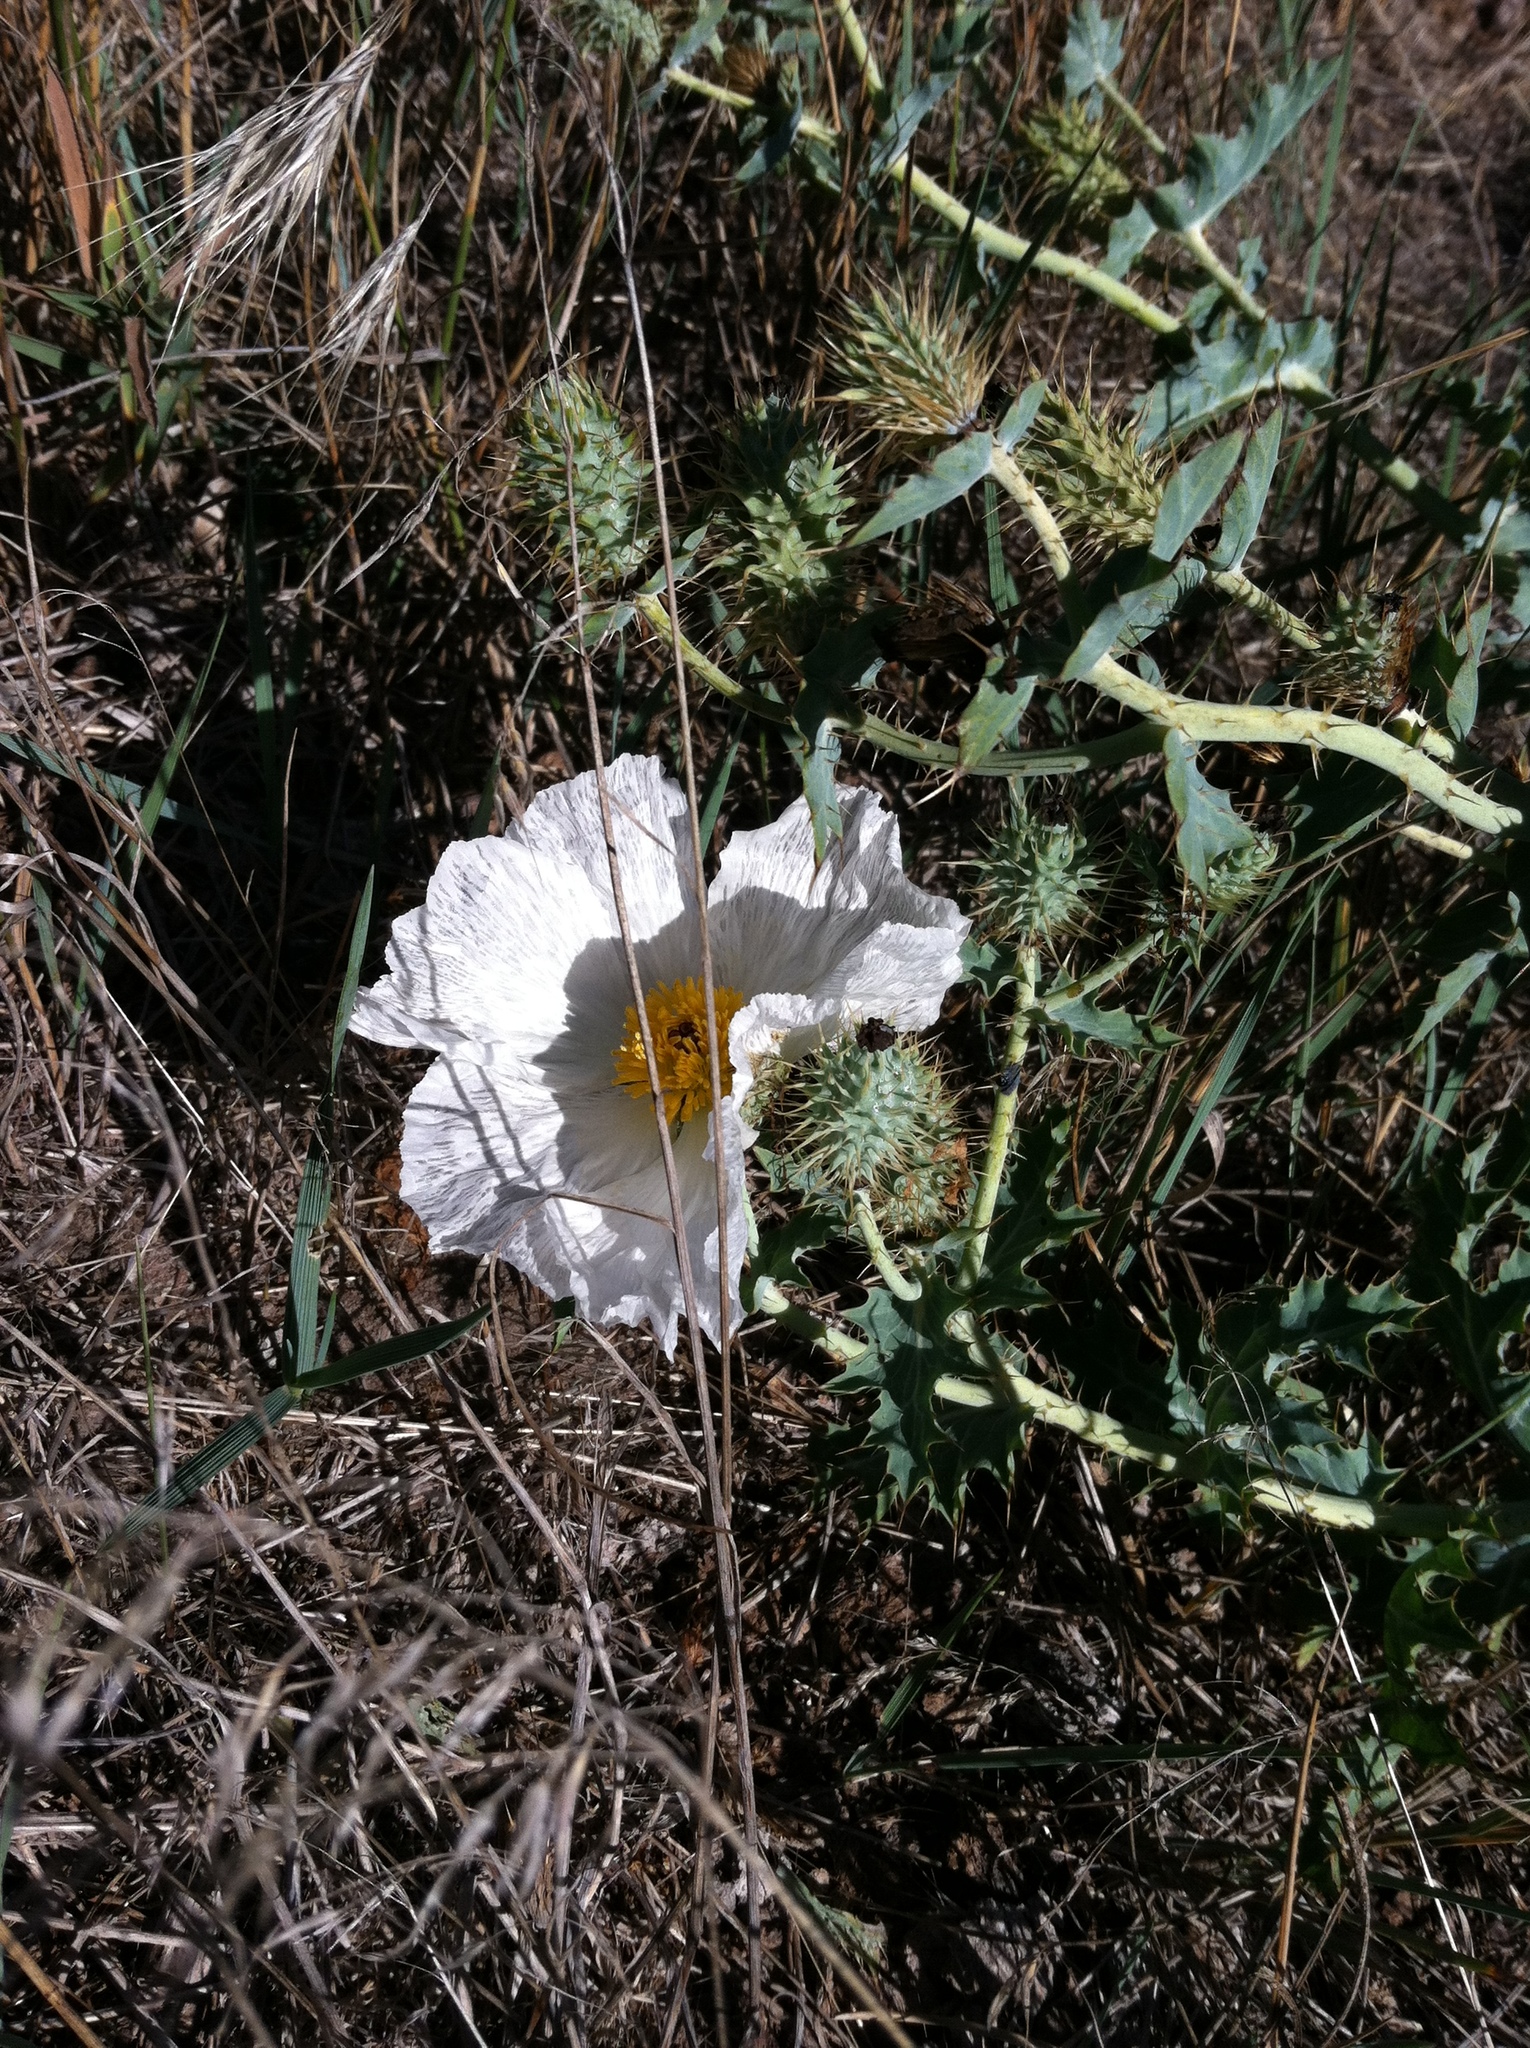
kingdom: Plantae
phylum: Tracheophyta
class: Magnoliopsida
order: Ranunculales
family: Papaveraceae
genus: Argemone
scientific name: Argemone polyanthemos
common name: Plains prickly-poppy
